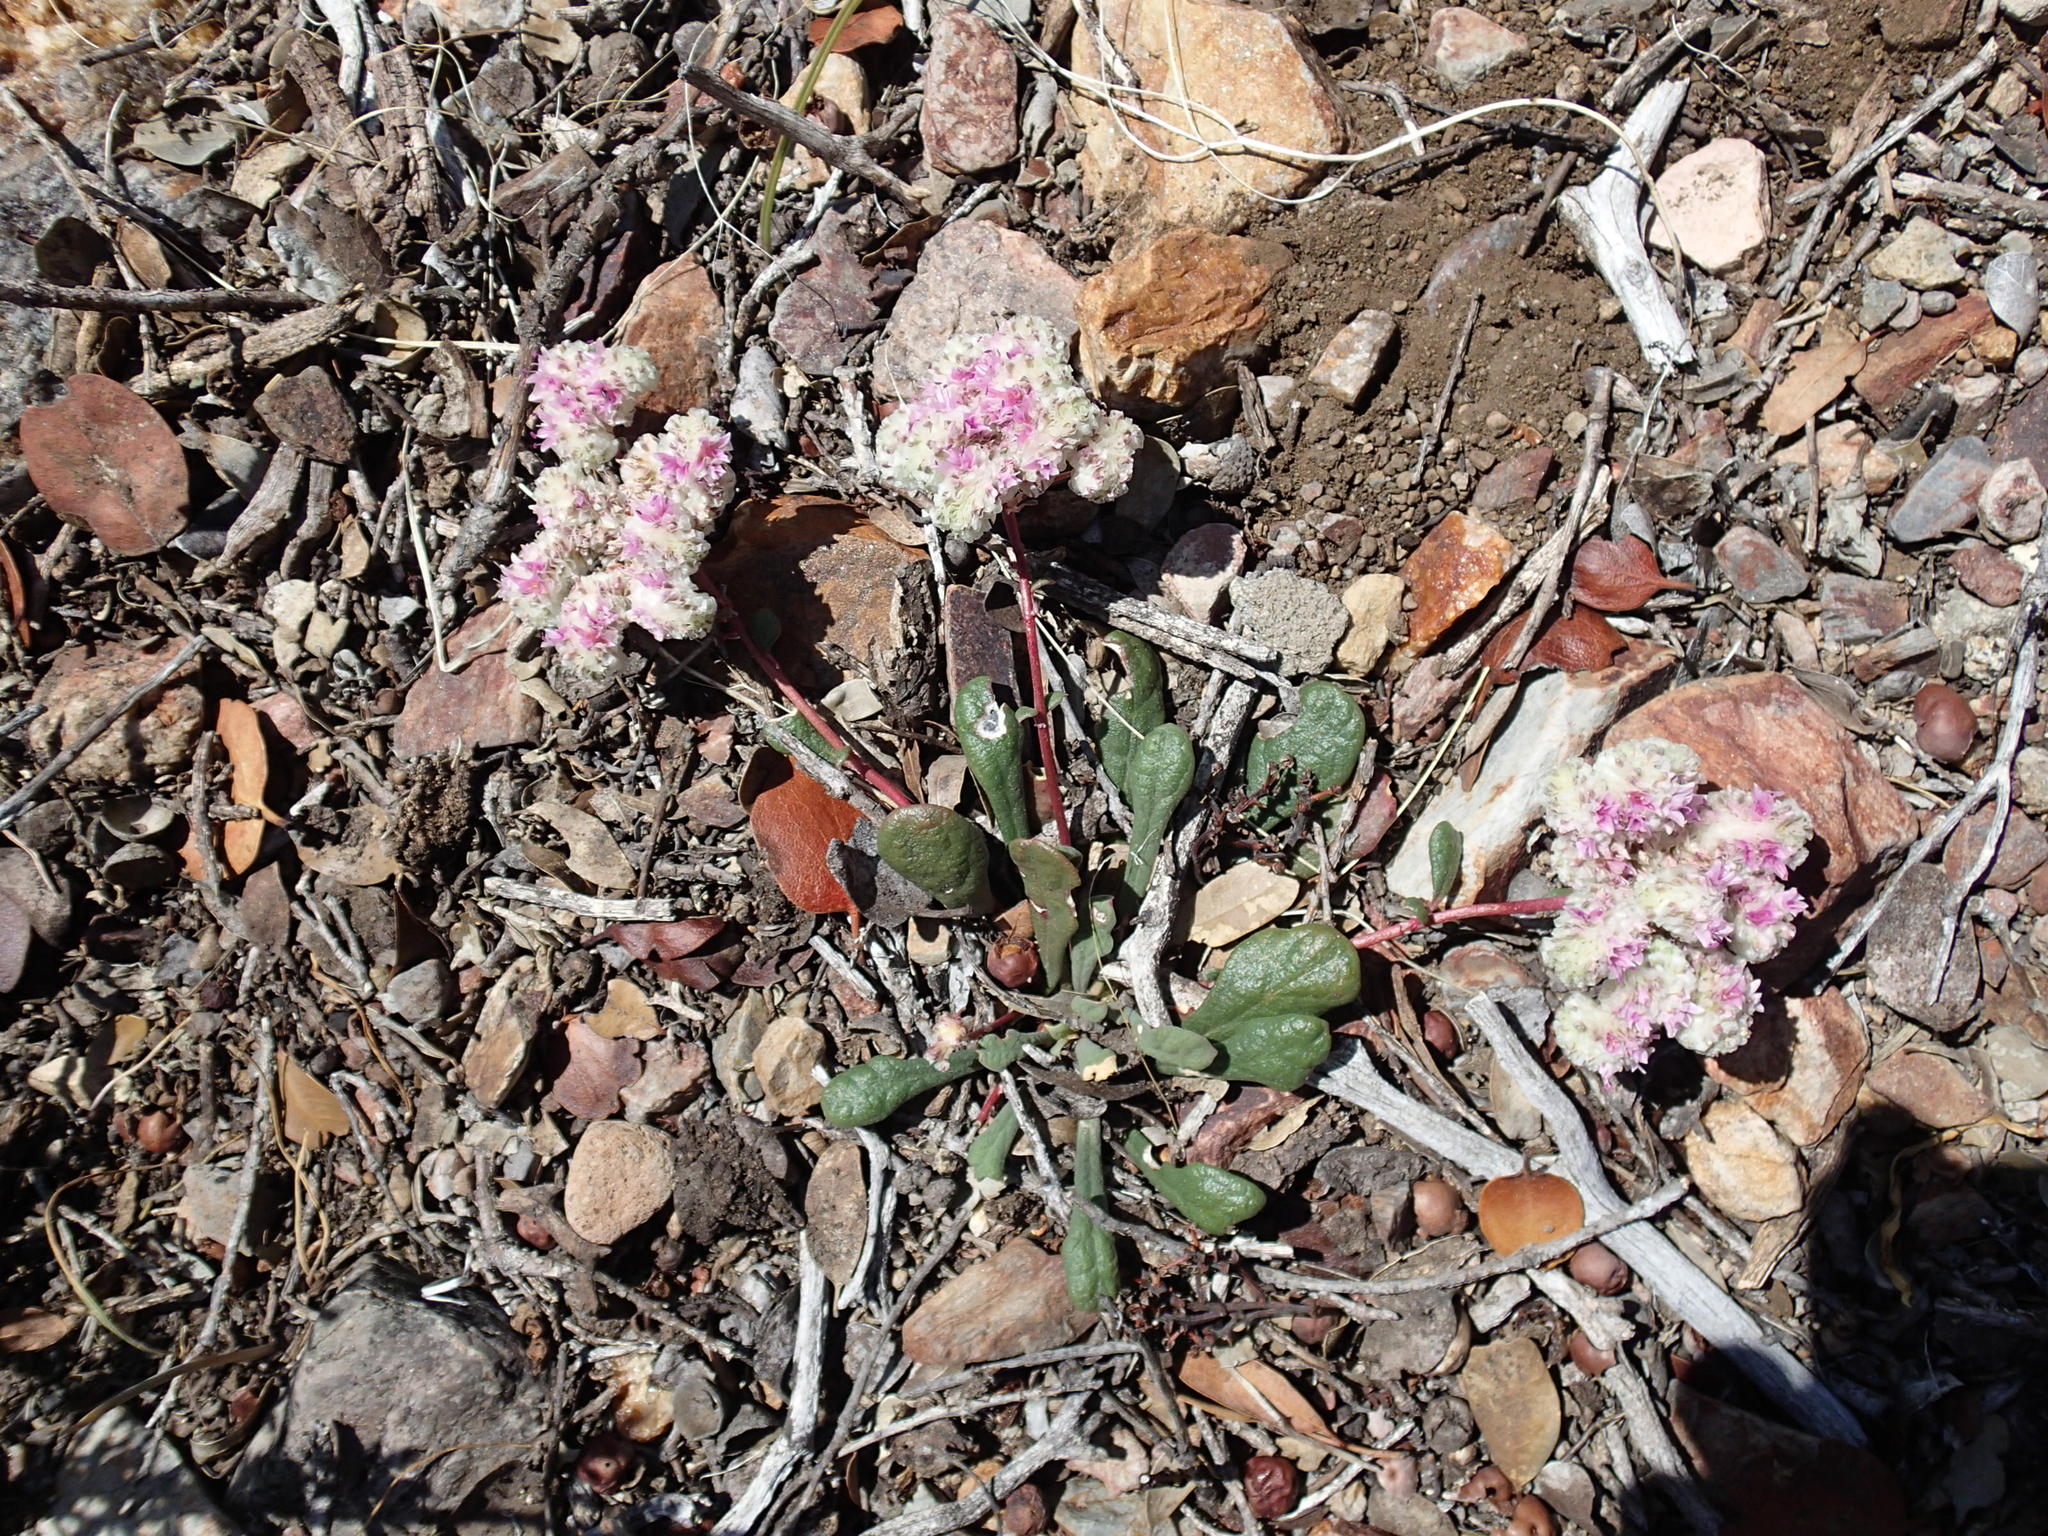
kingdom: Plantae
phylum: Tracheophyta
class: Magnoliopsida
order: Caryophyllales
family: Montiaceae
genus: Calyptridium
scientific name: Calyptridium monospermum
